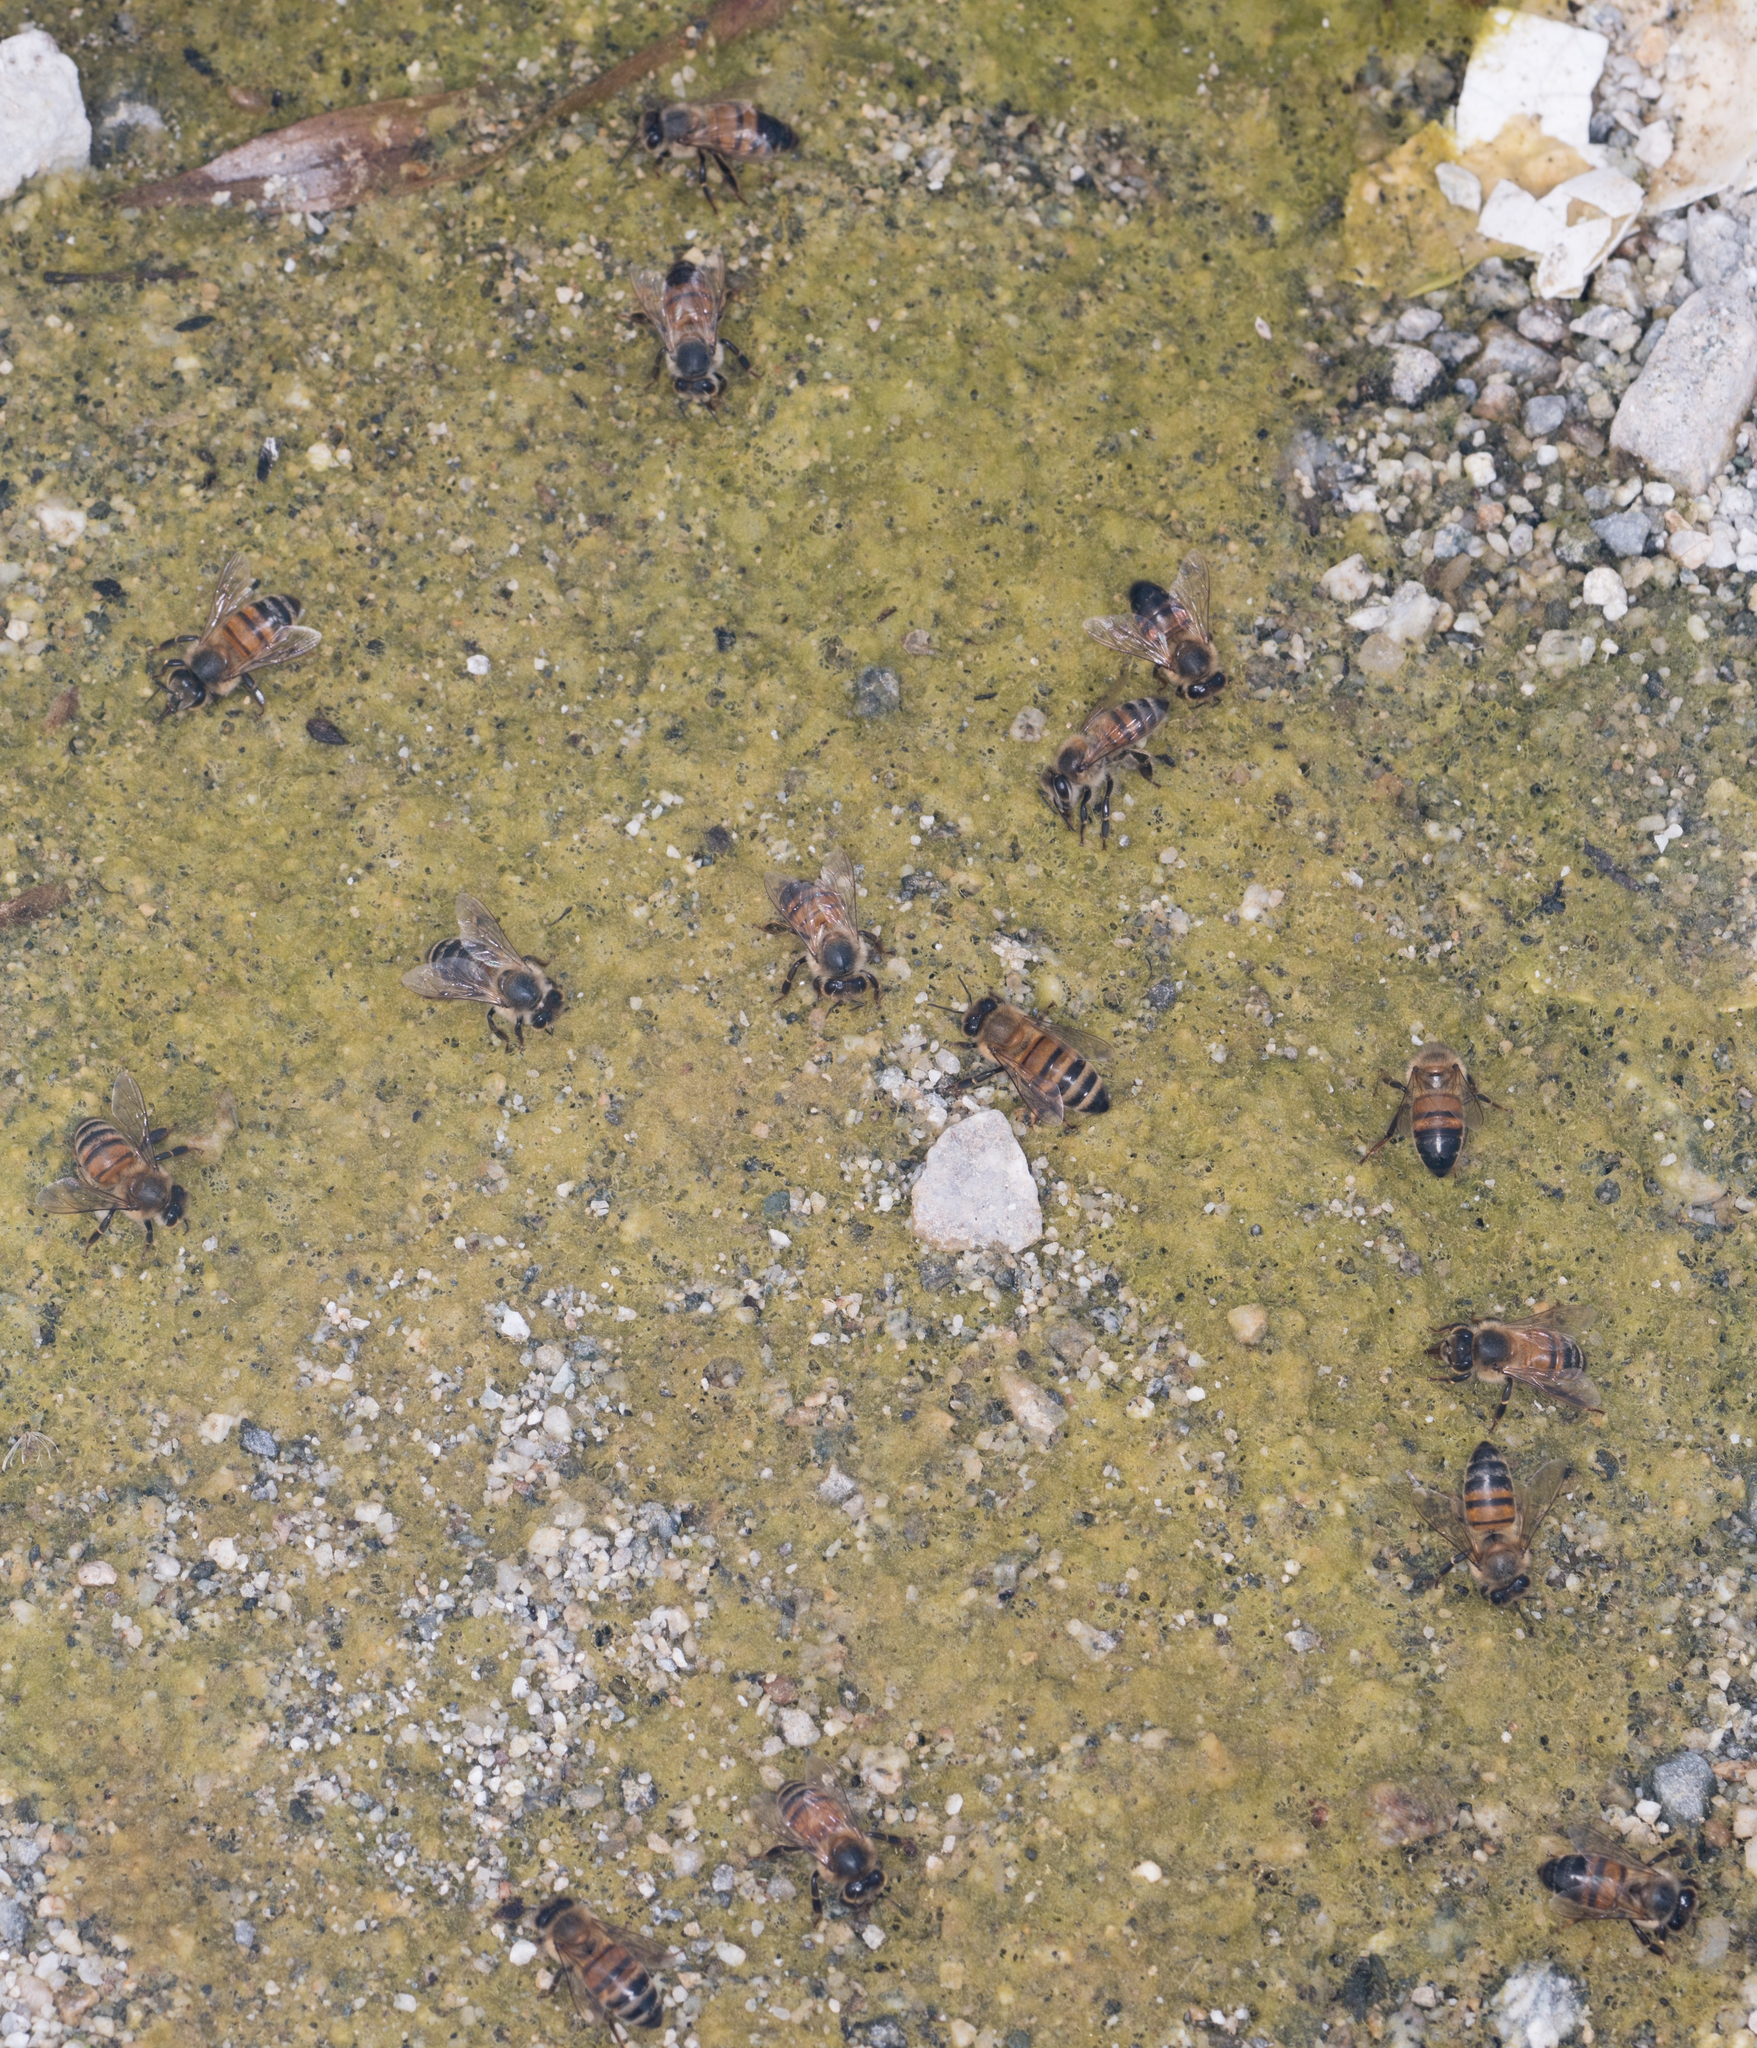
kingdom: Animalia
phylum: Arthropoda
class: Insecta
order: Hymenoptera
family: Apidae
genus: Apis
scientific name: Apis mellifera
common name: Honey bee
